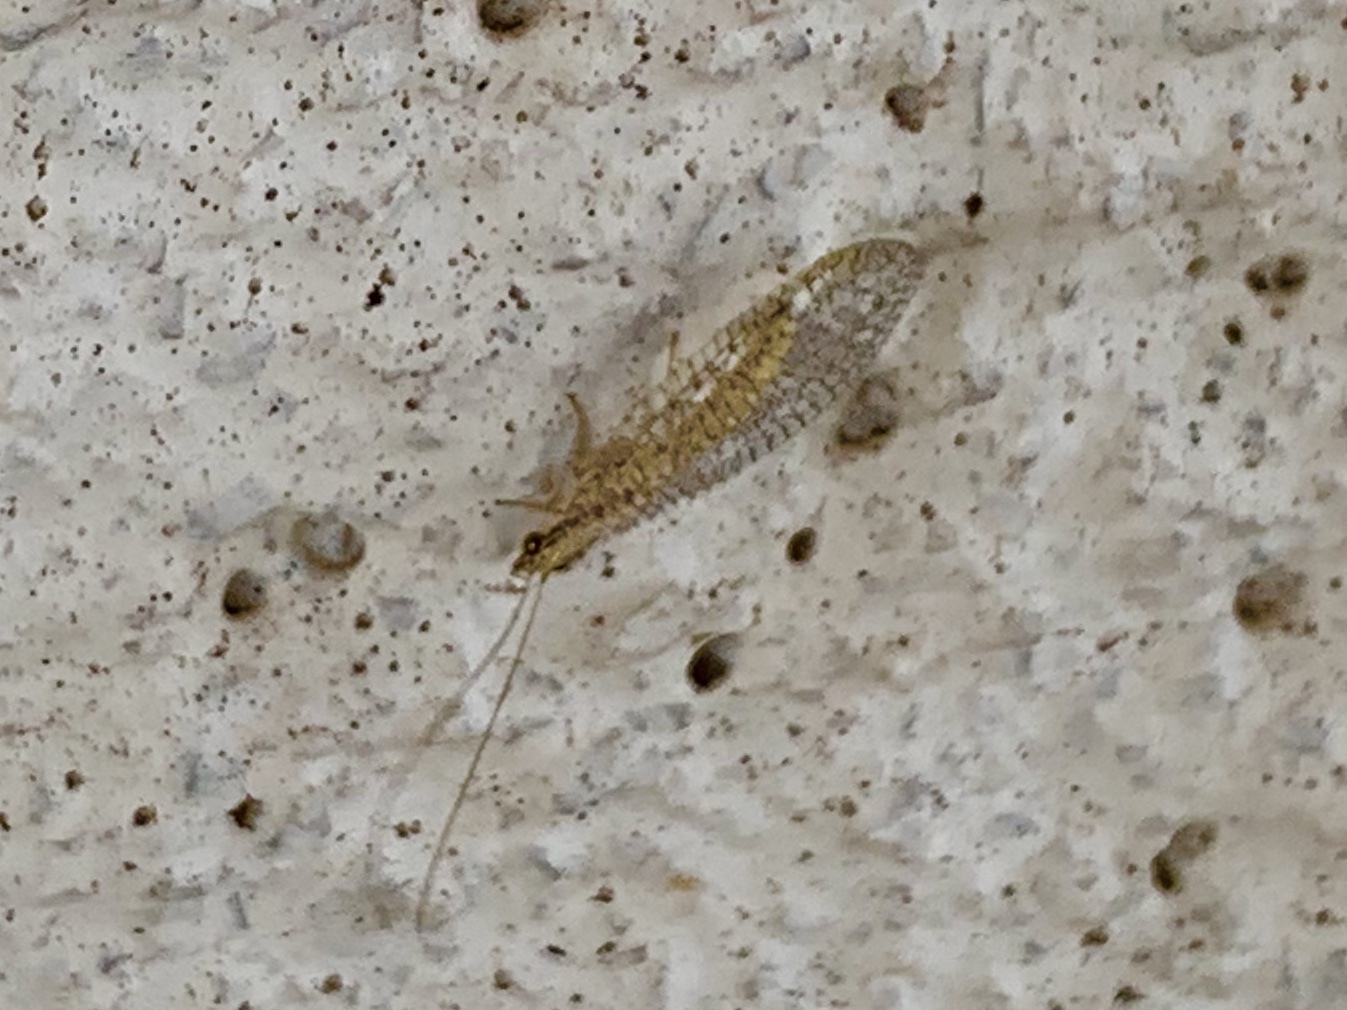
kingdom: Animalia
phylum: Arthropoda
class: Insecta
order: Neuroptera
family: Chrysopidae
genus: Eremochrysa
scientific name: Eremochrysa
